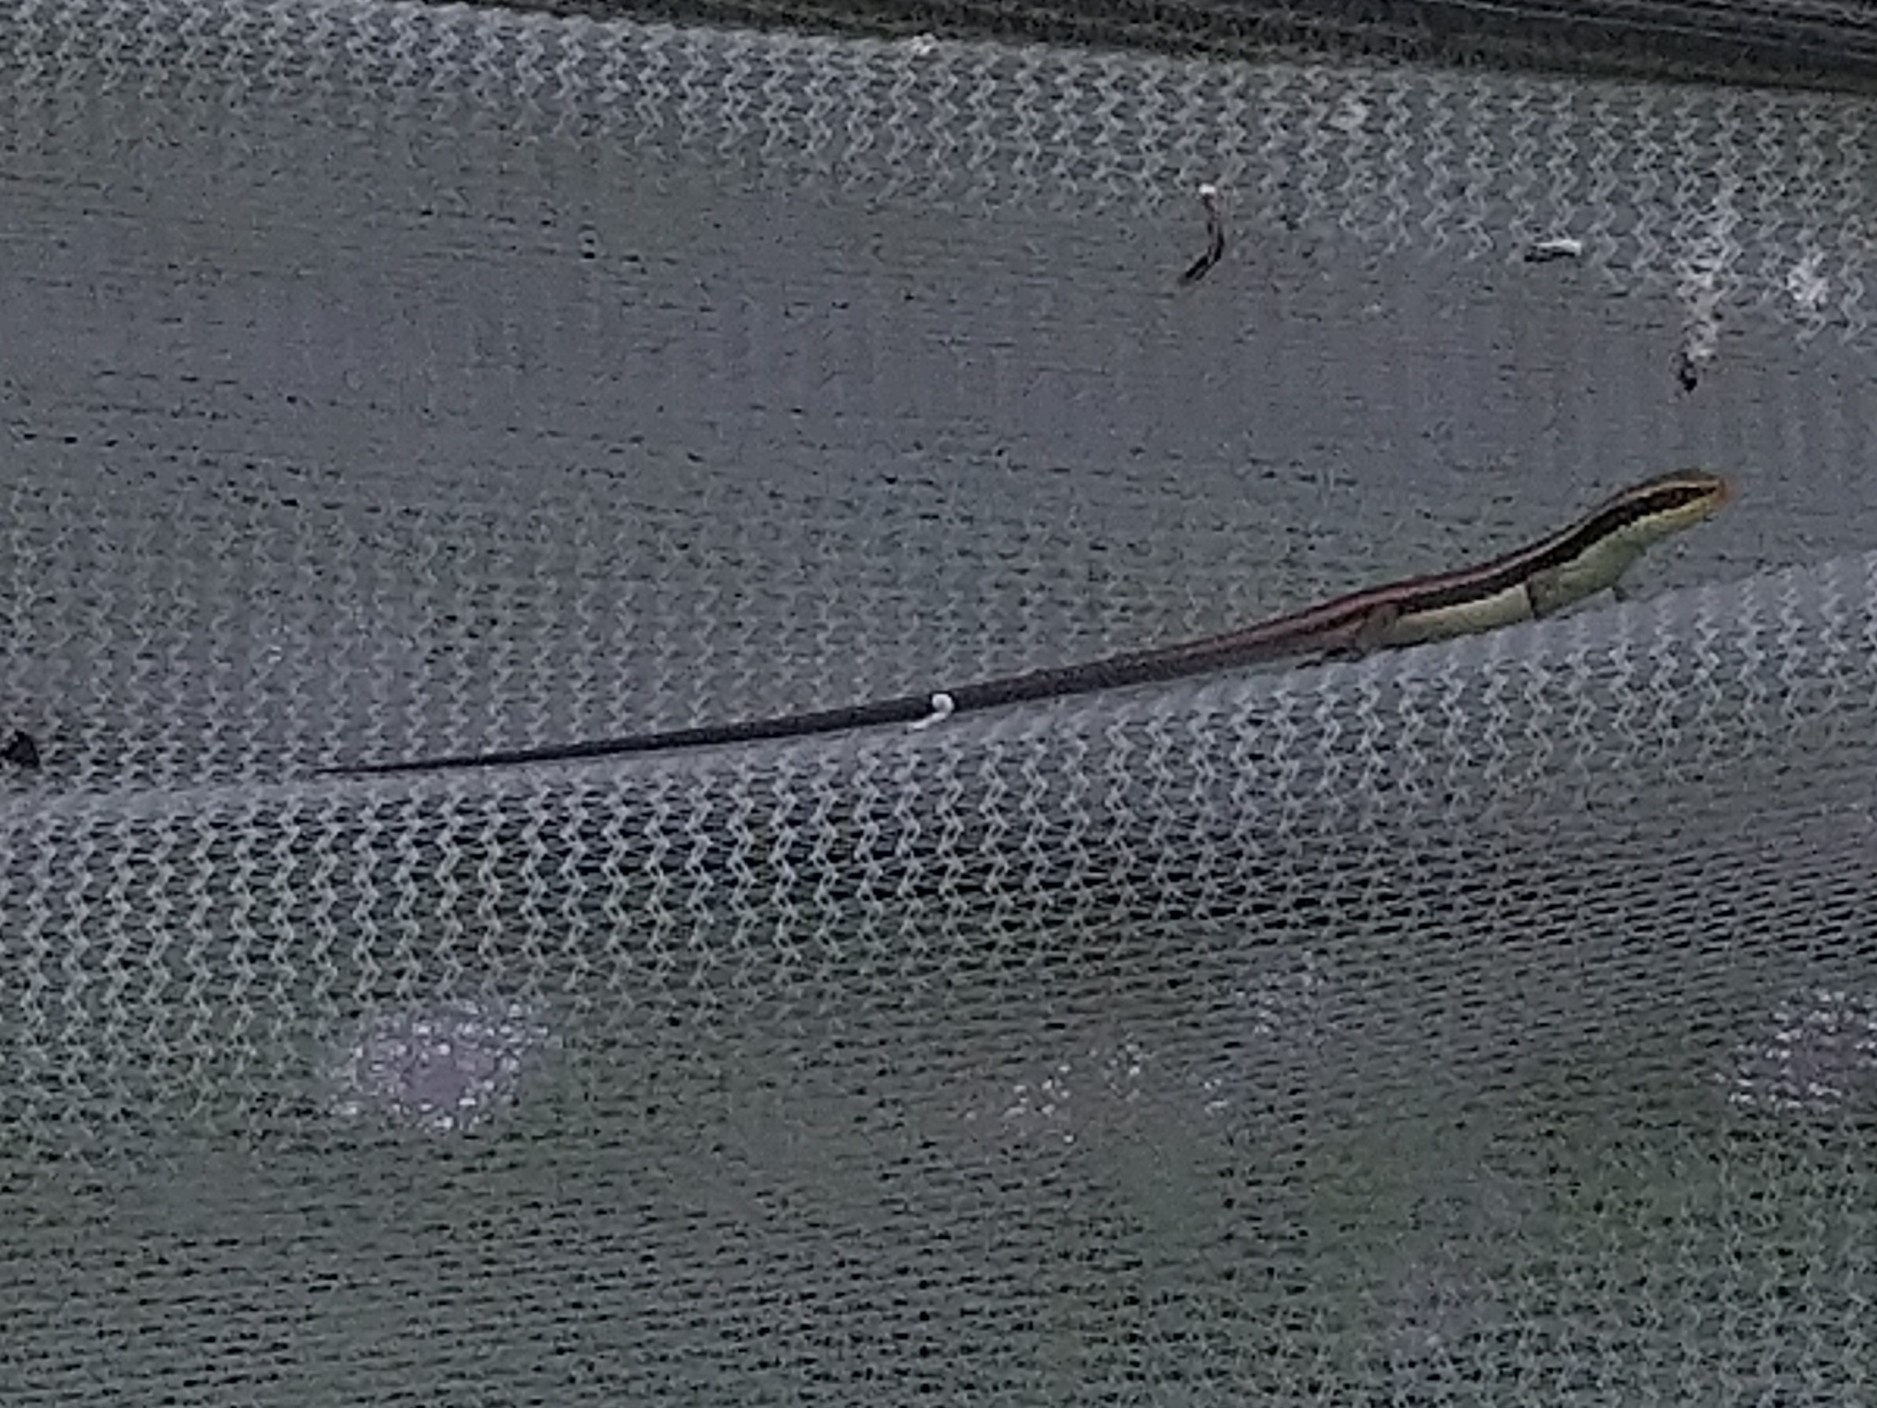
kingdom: Animalia
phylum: Chordata
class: Squamata
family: Scincidae
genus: Eutropis
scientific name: Eutropis longicaudata
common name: Long-tailed sun skink
